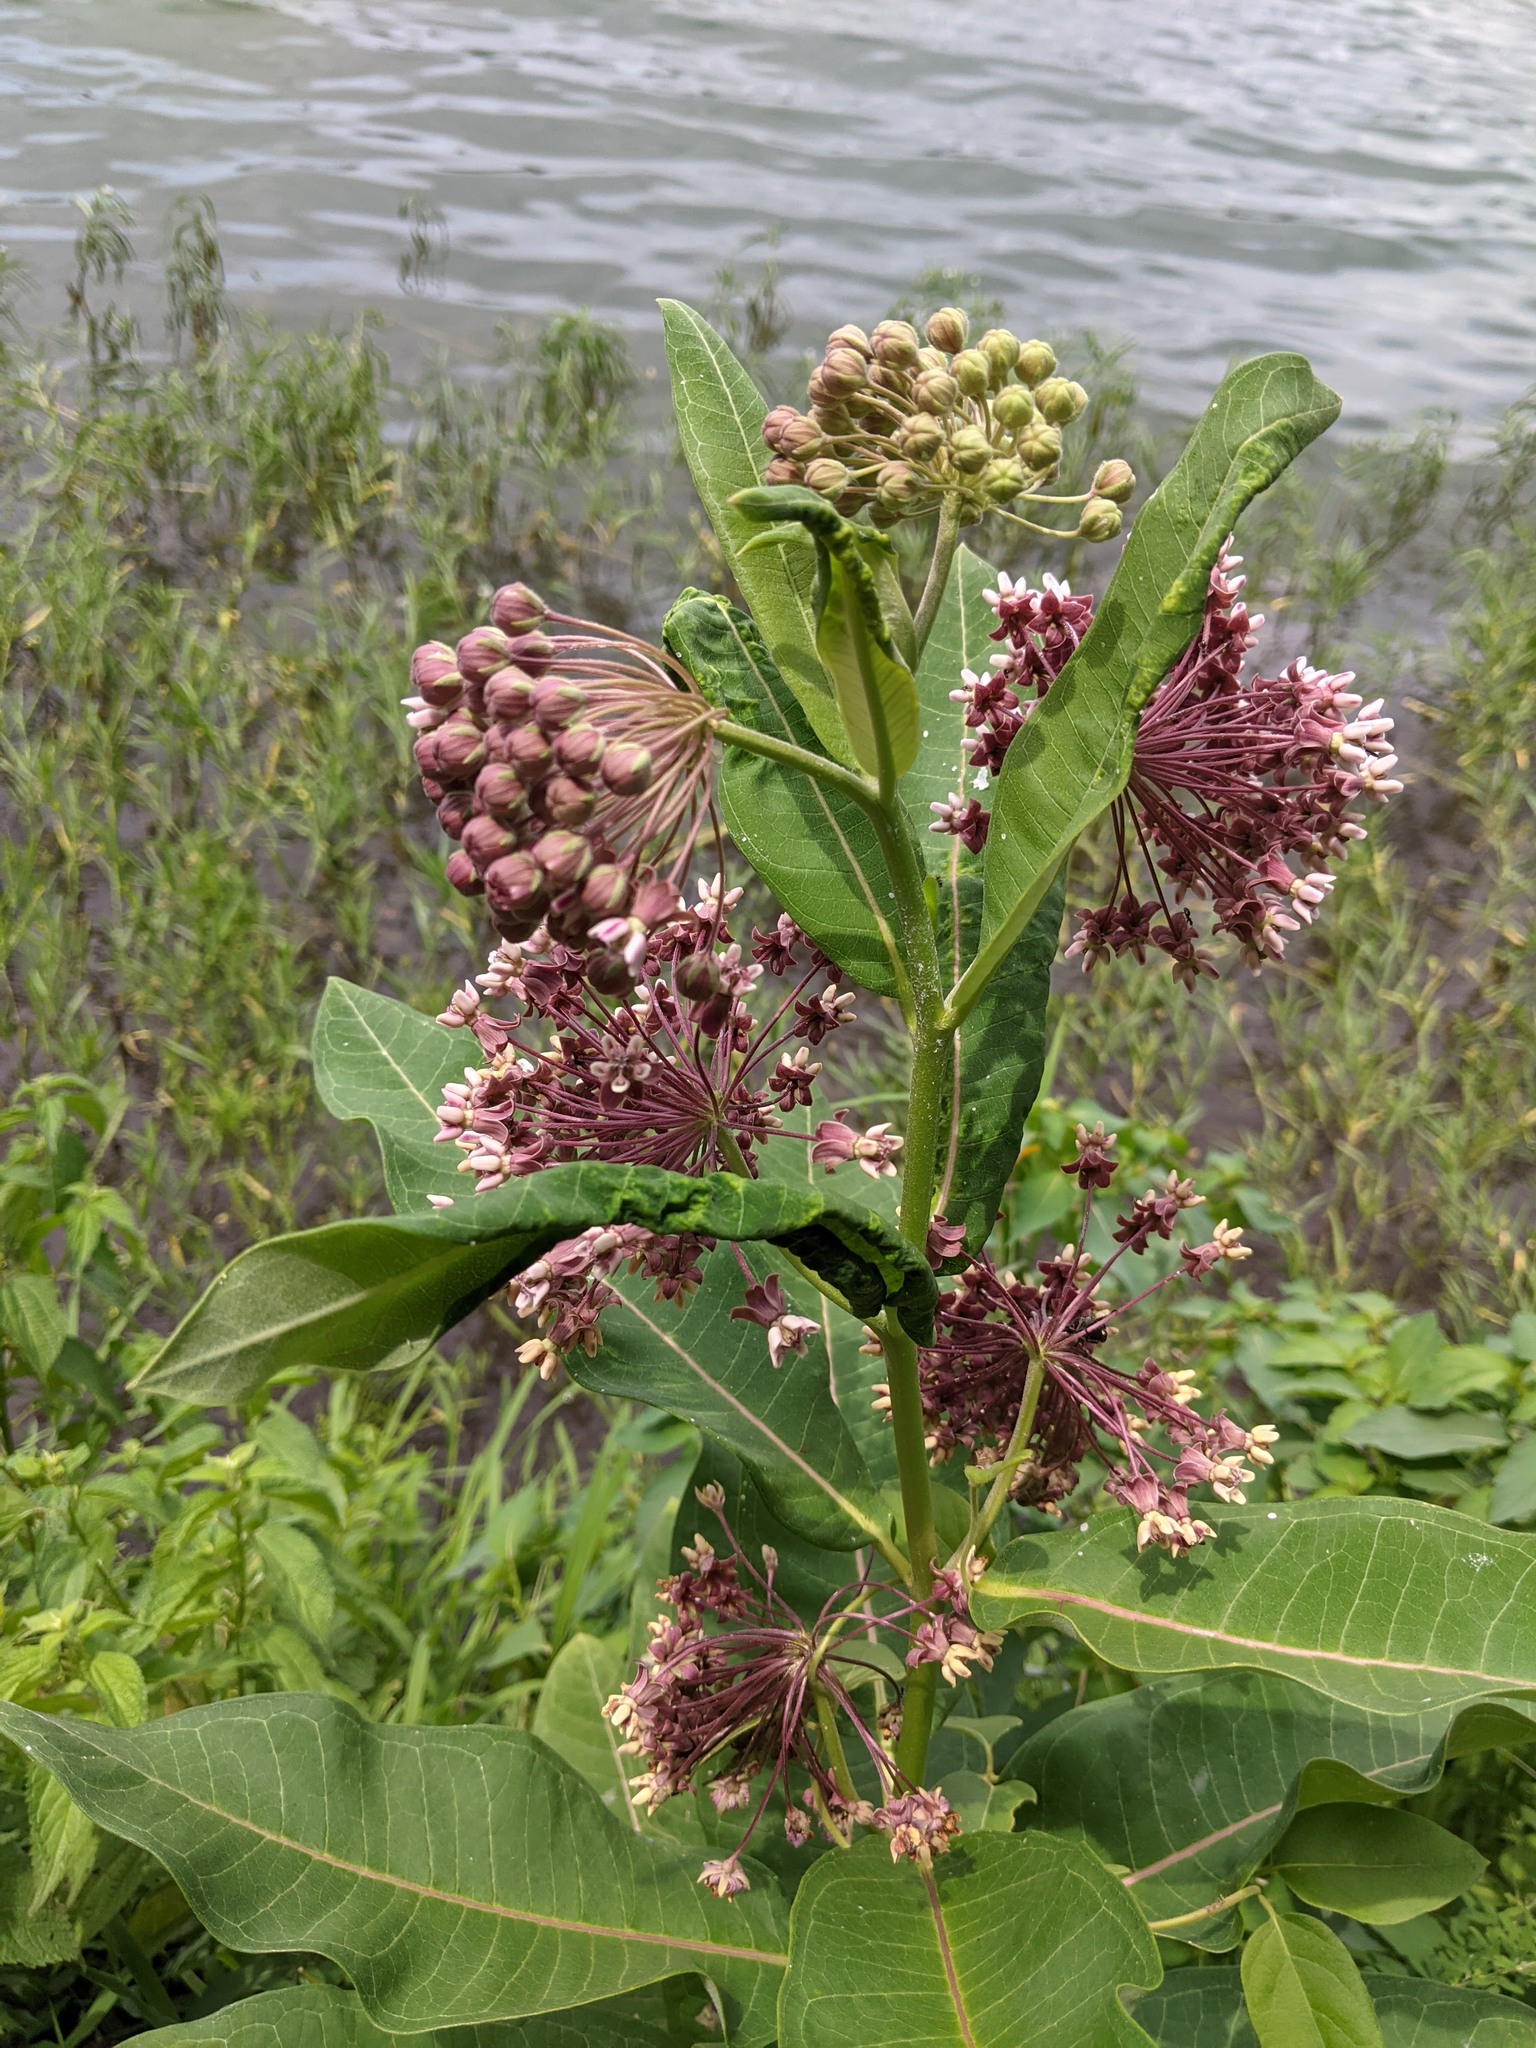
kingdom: Plantae
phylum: Tracheophyta
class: Magnoliopsida
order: Gentianales
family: Apocynaceae
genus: Asclepias
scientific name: Asclepias syriaca
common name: Common milkweed
